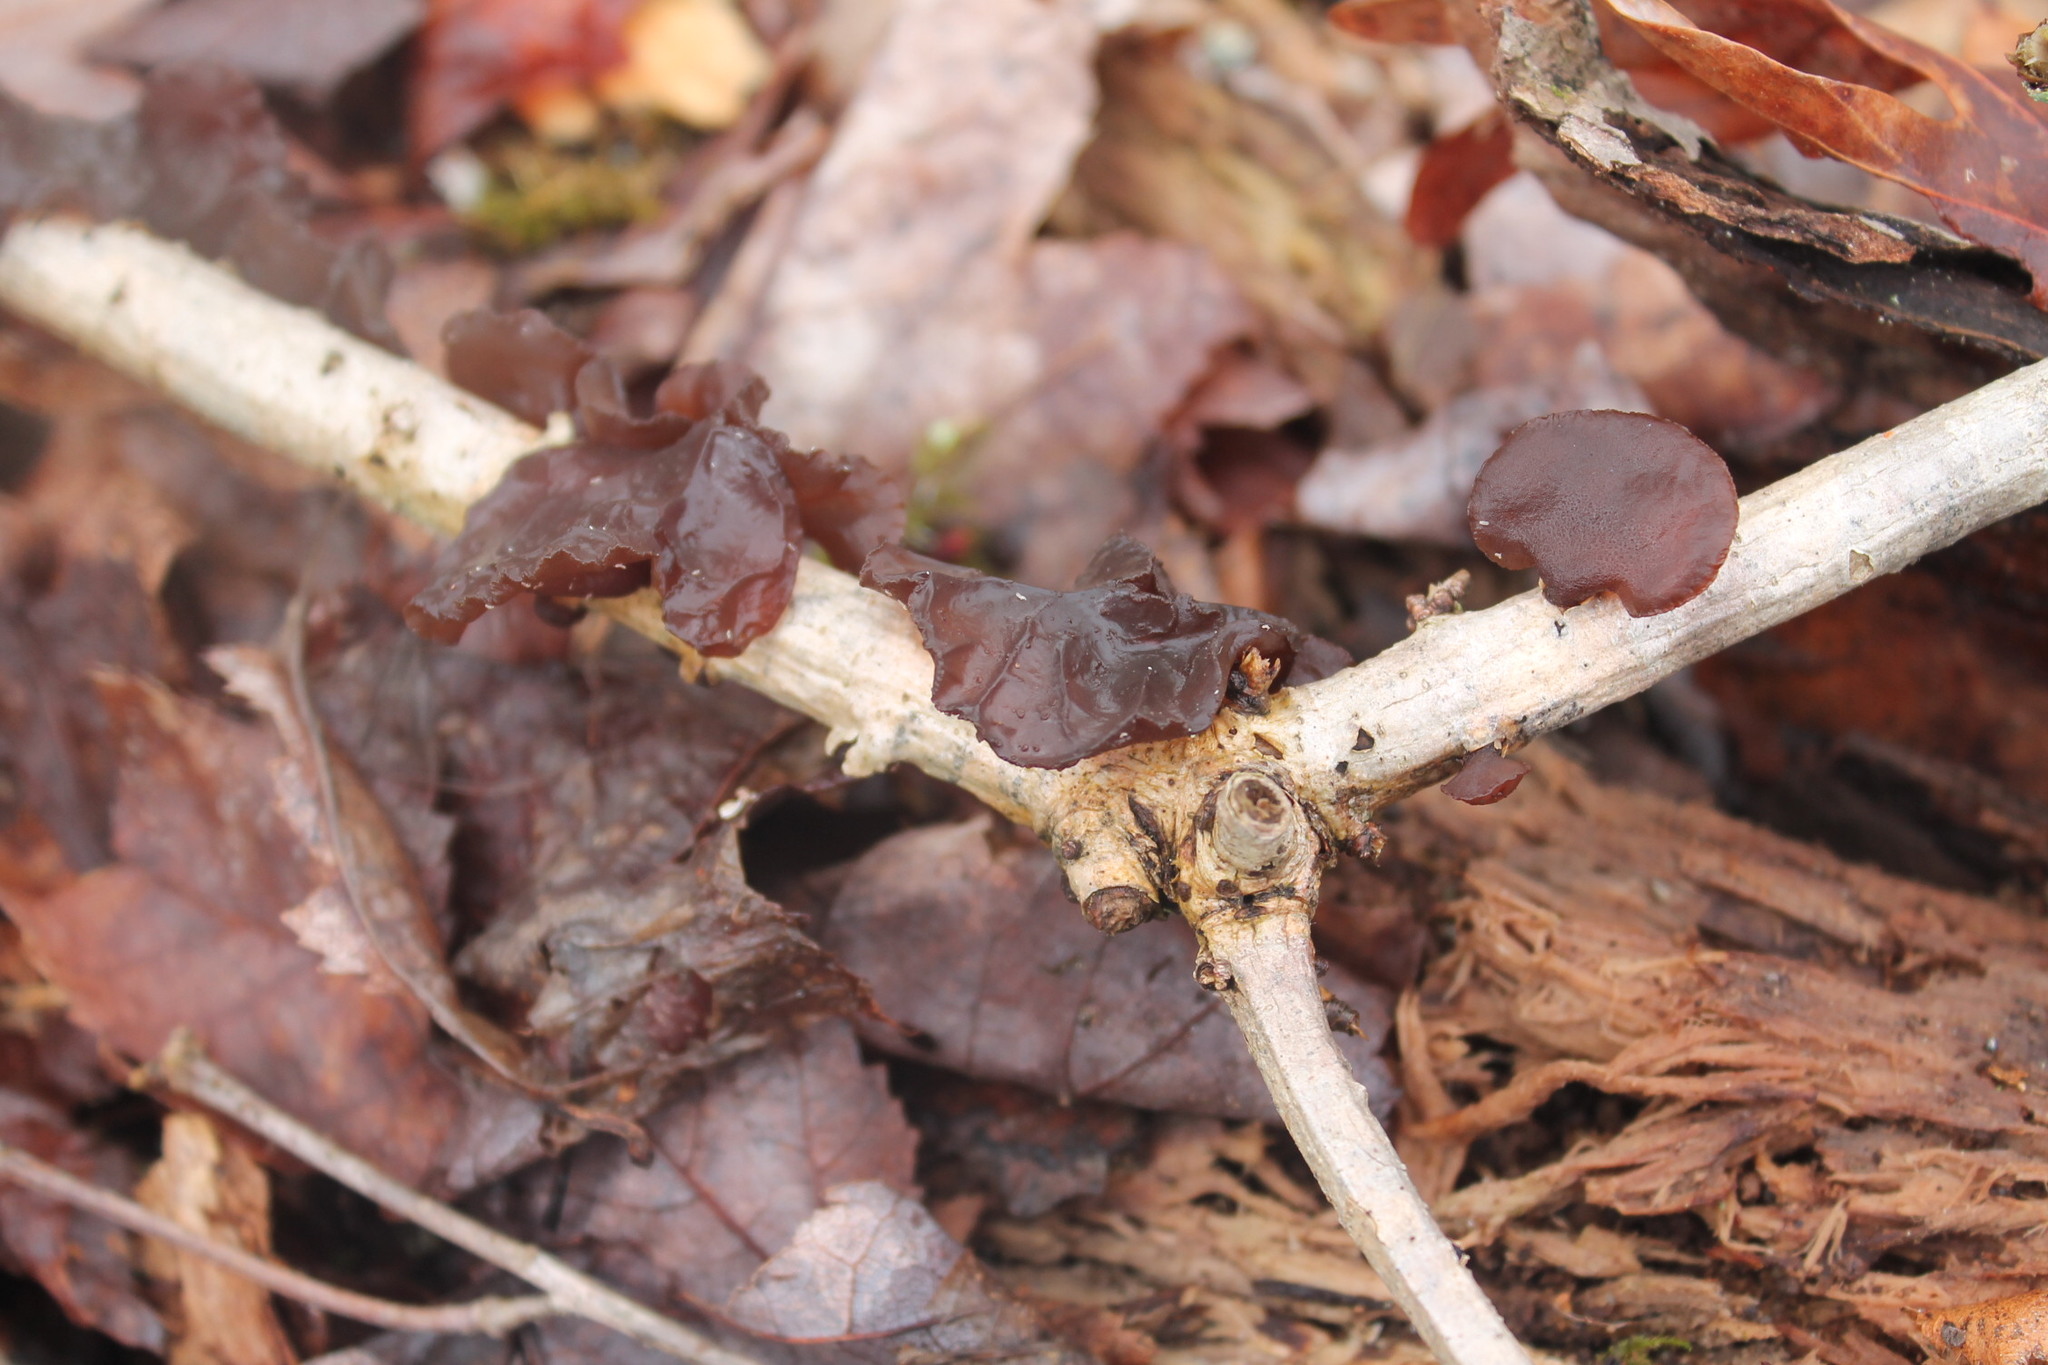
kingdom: Fungi
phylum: Basidiomycota
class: Agaricomycetes
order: Auriculariales
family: Auriculariaceae
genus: Exidia
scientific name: Exidia
